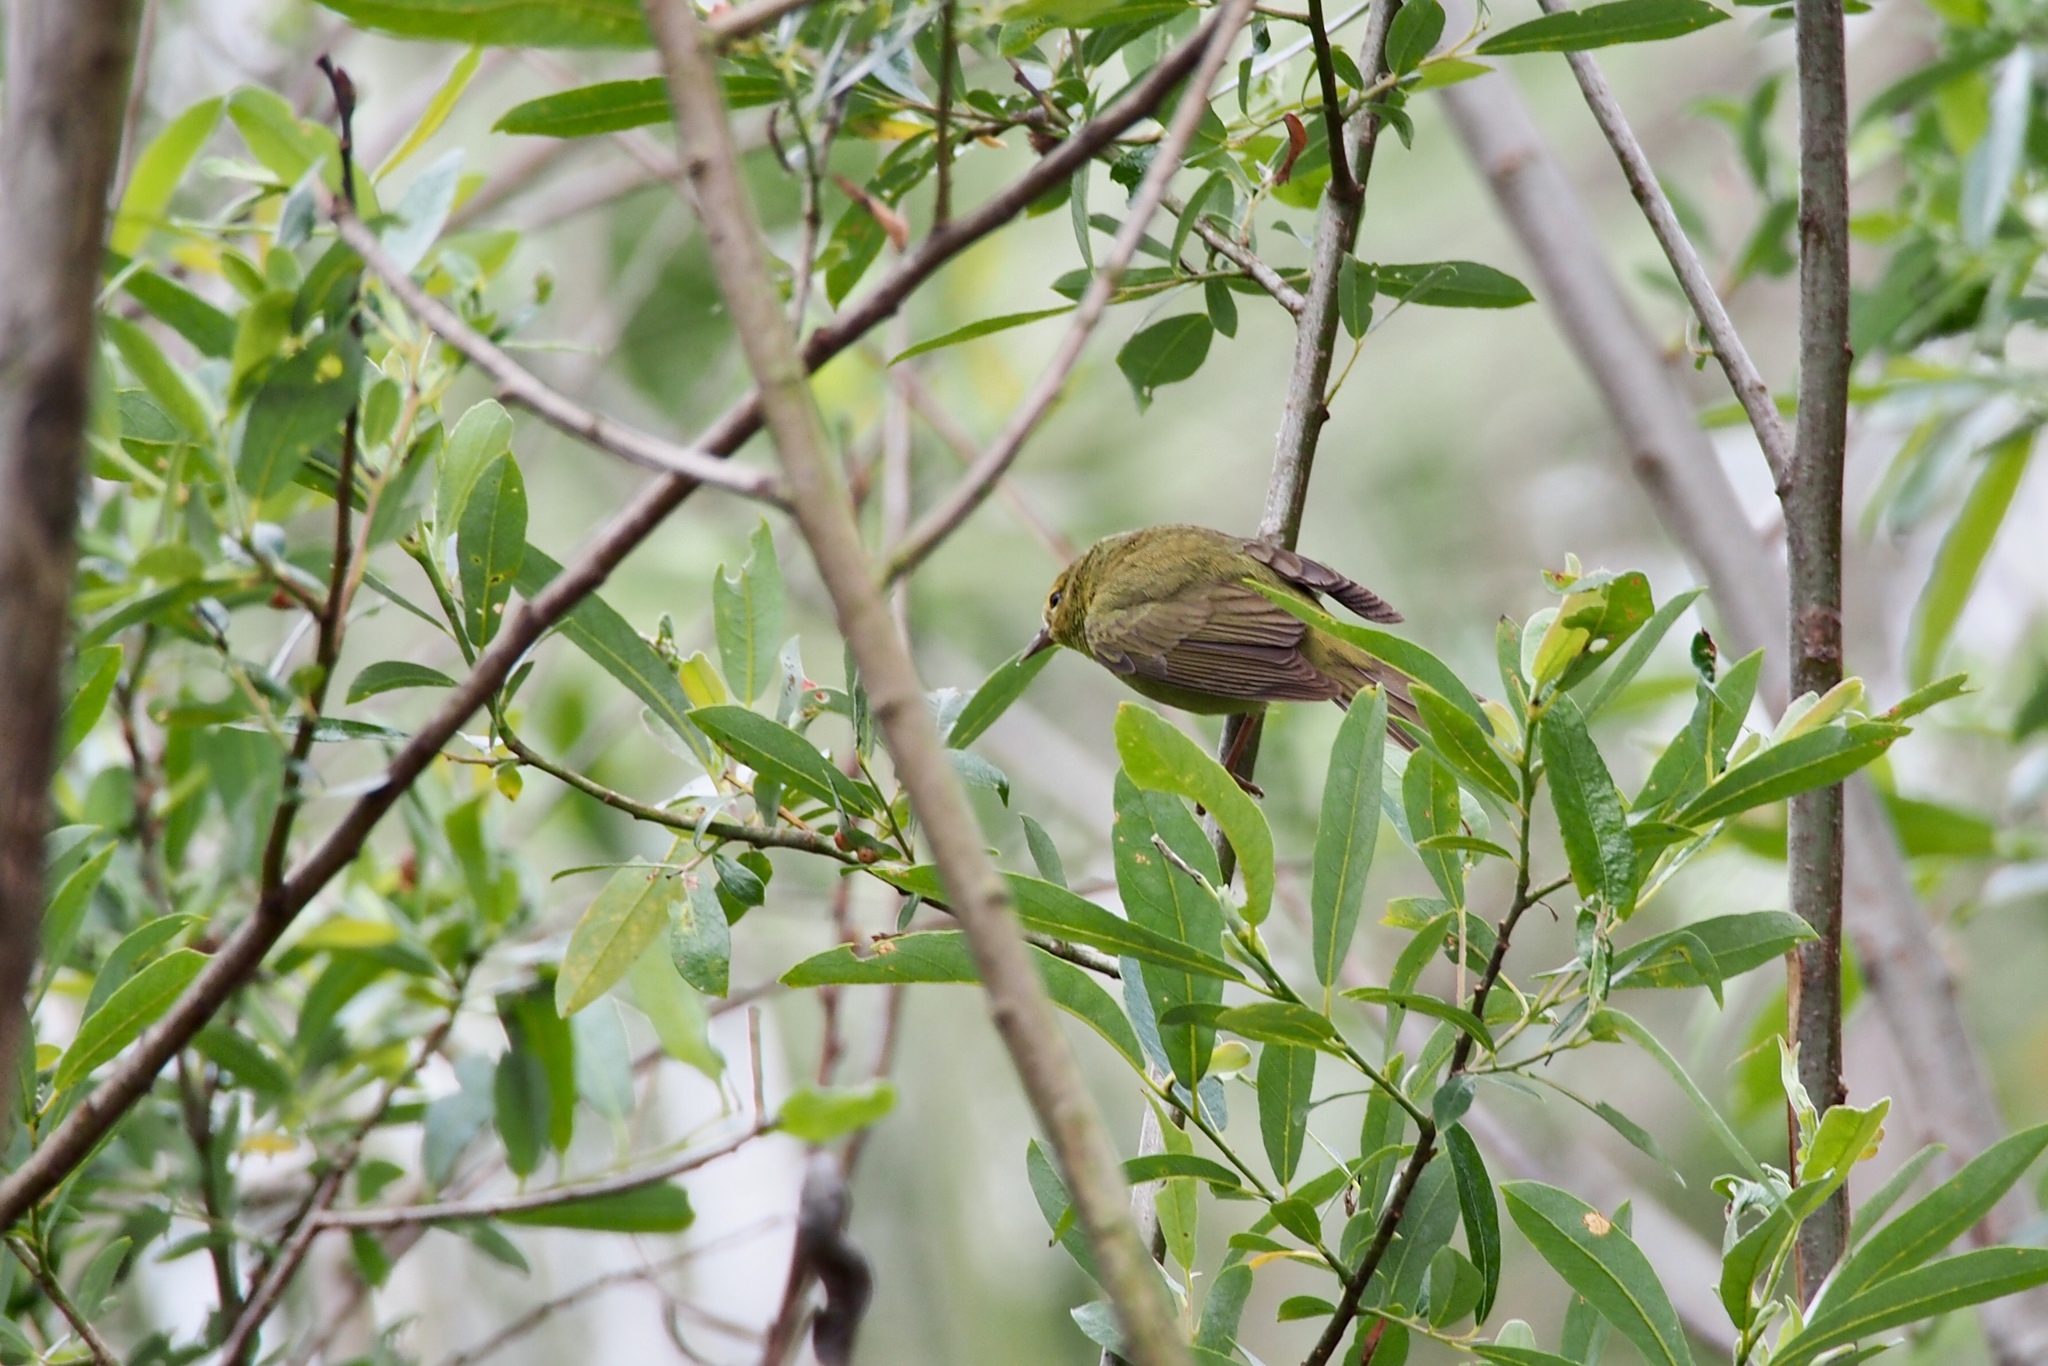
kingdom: Animalia
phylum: Chordata
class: Aves
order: Passeriformes
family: Parulidae
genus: Leiothlypis
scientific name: Leiothlypis celata
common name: Orange-crowned warbler
